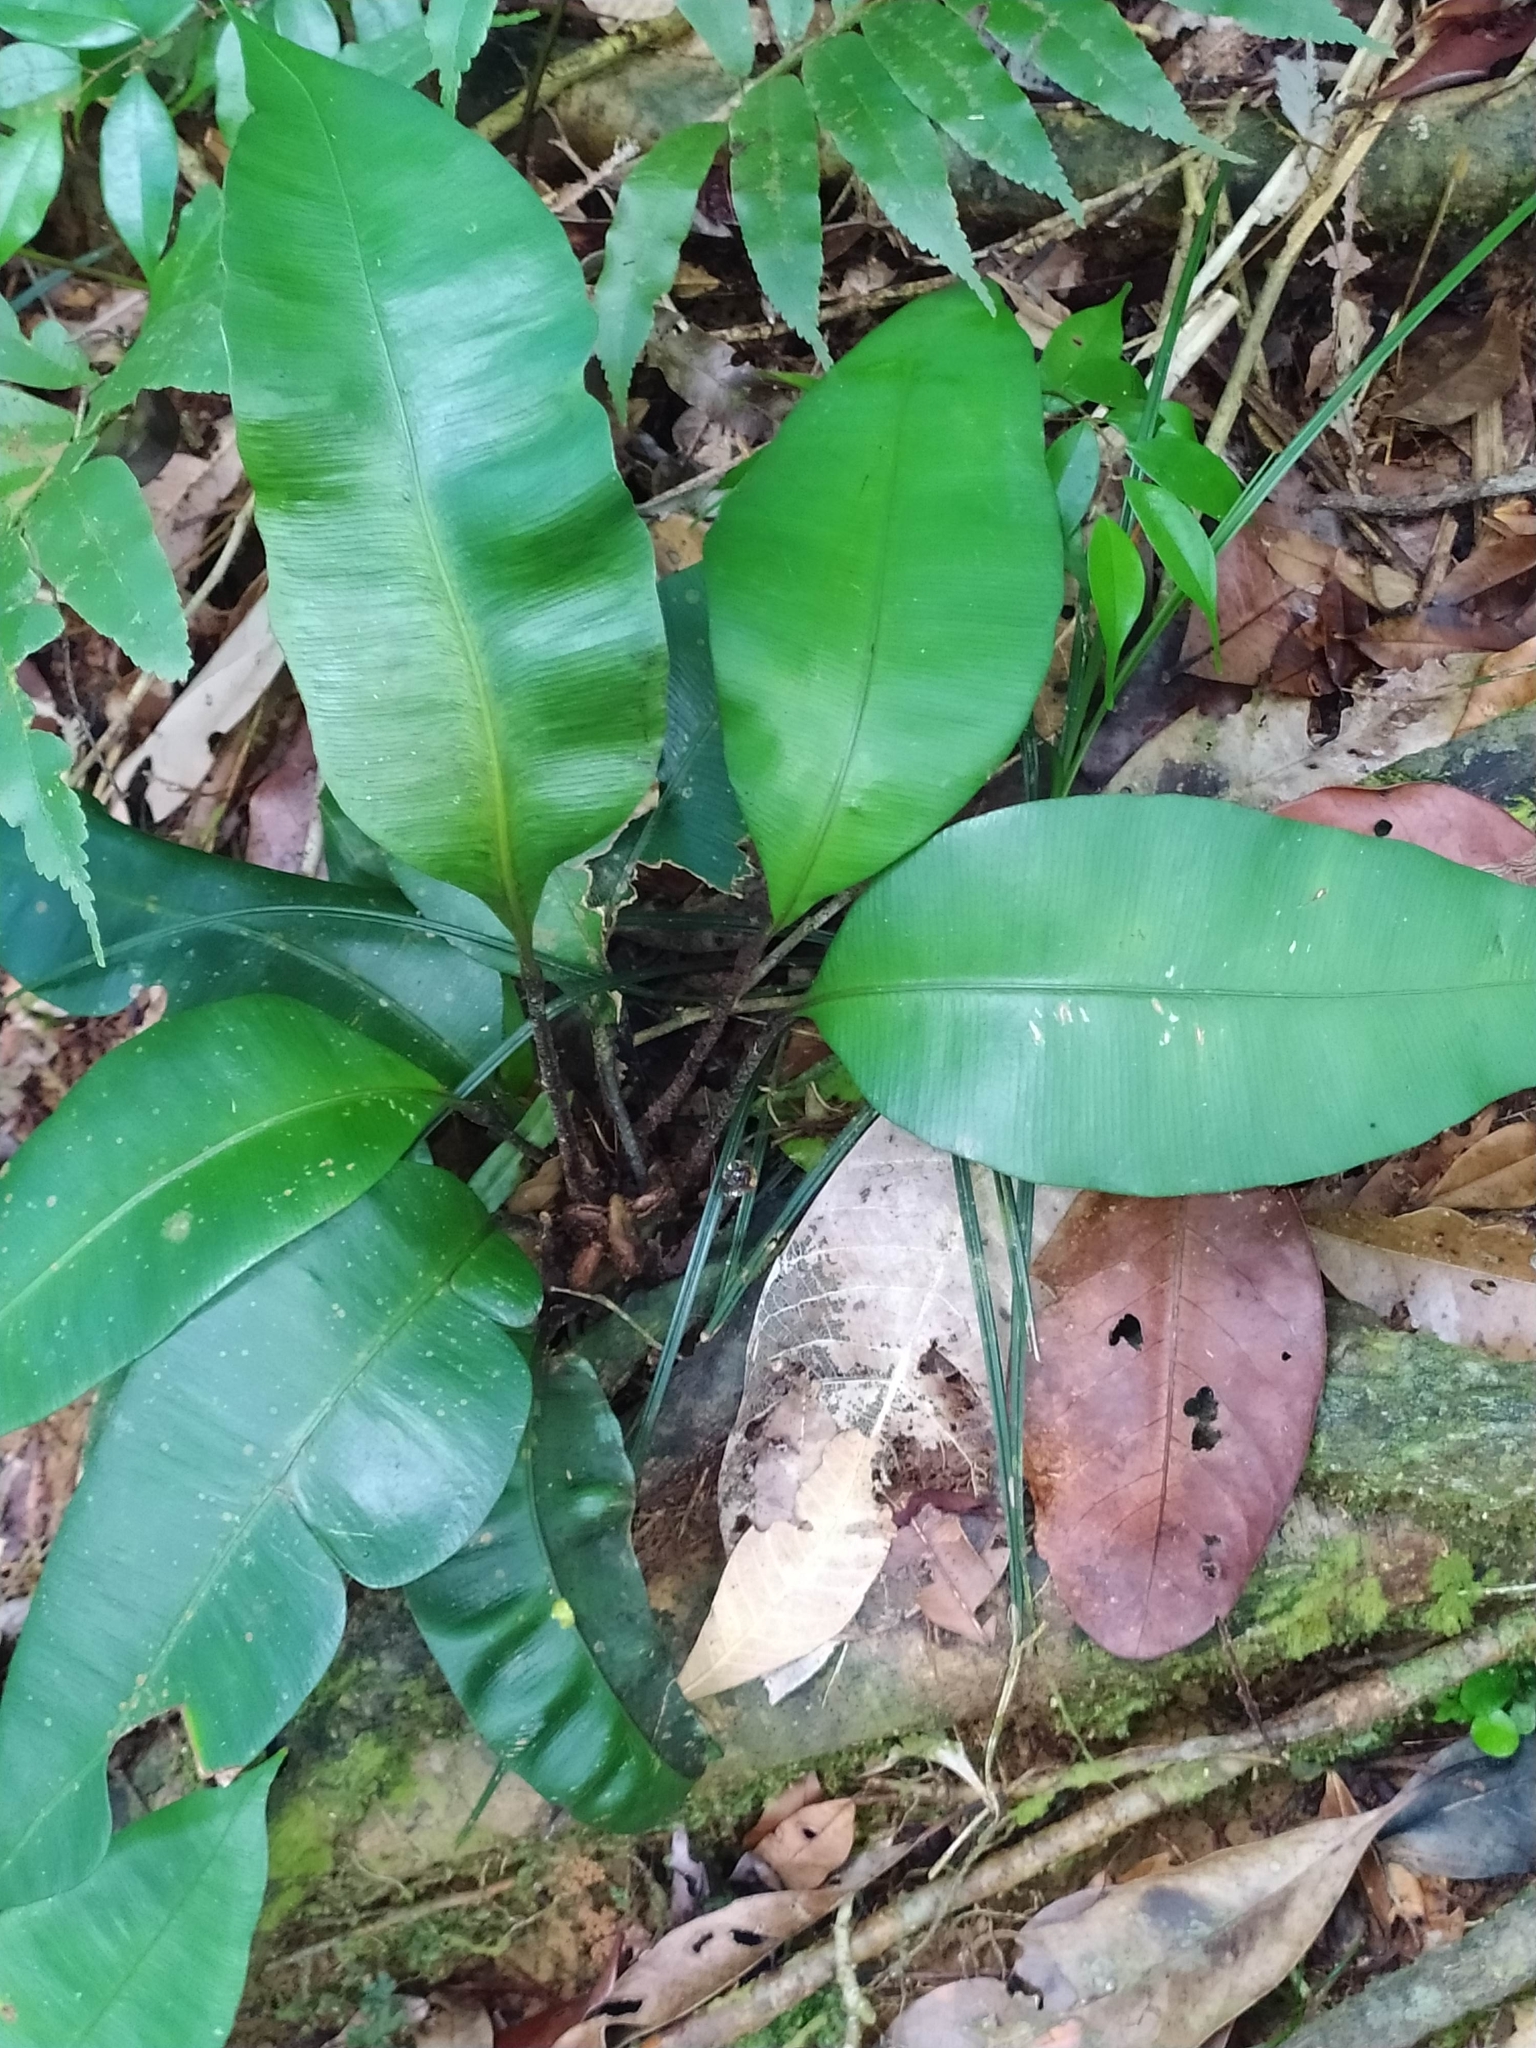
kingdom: Plantae
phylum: Tracheophyta
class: Polypodiopsida
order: Marattiales
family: Marattiaceae
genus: Danaea
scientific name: Danaea simplicifolia
